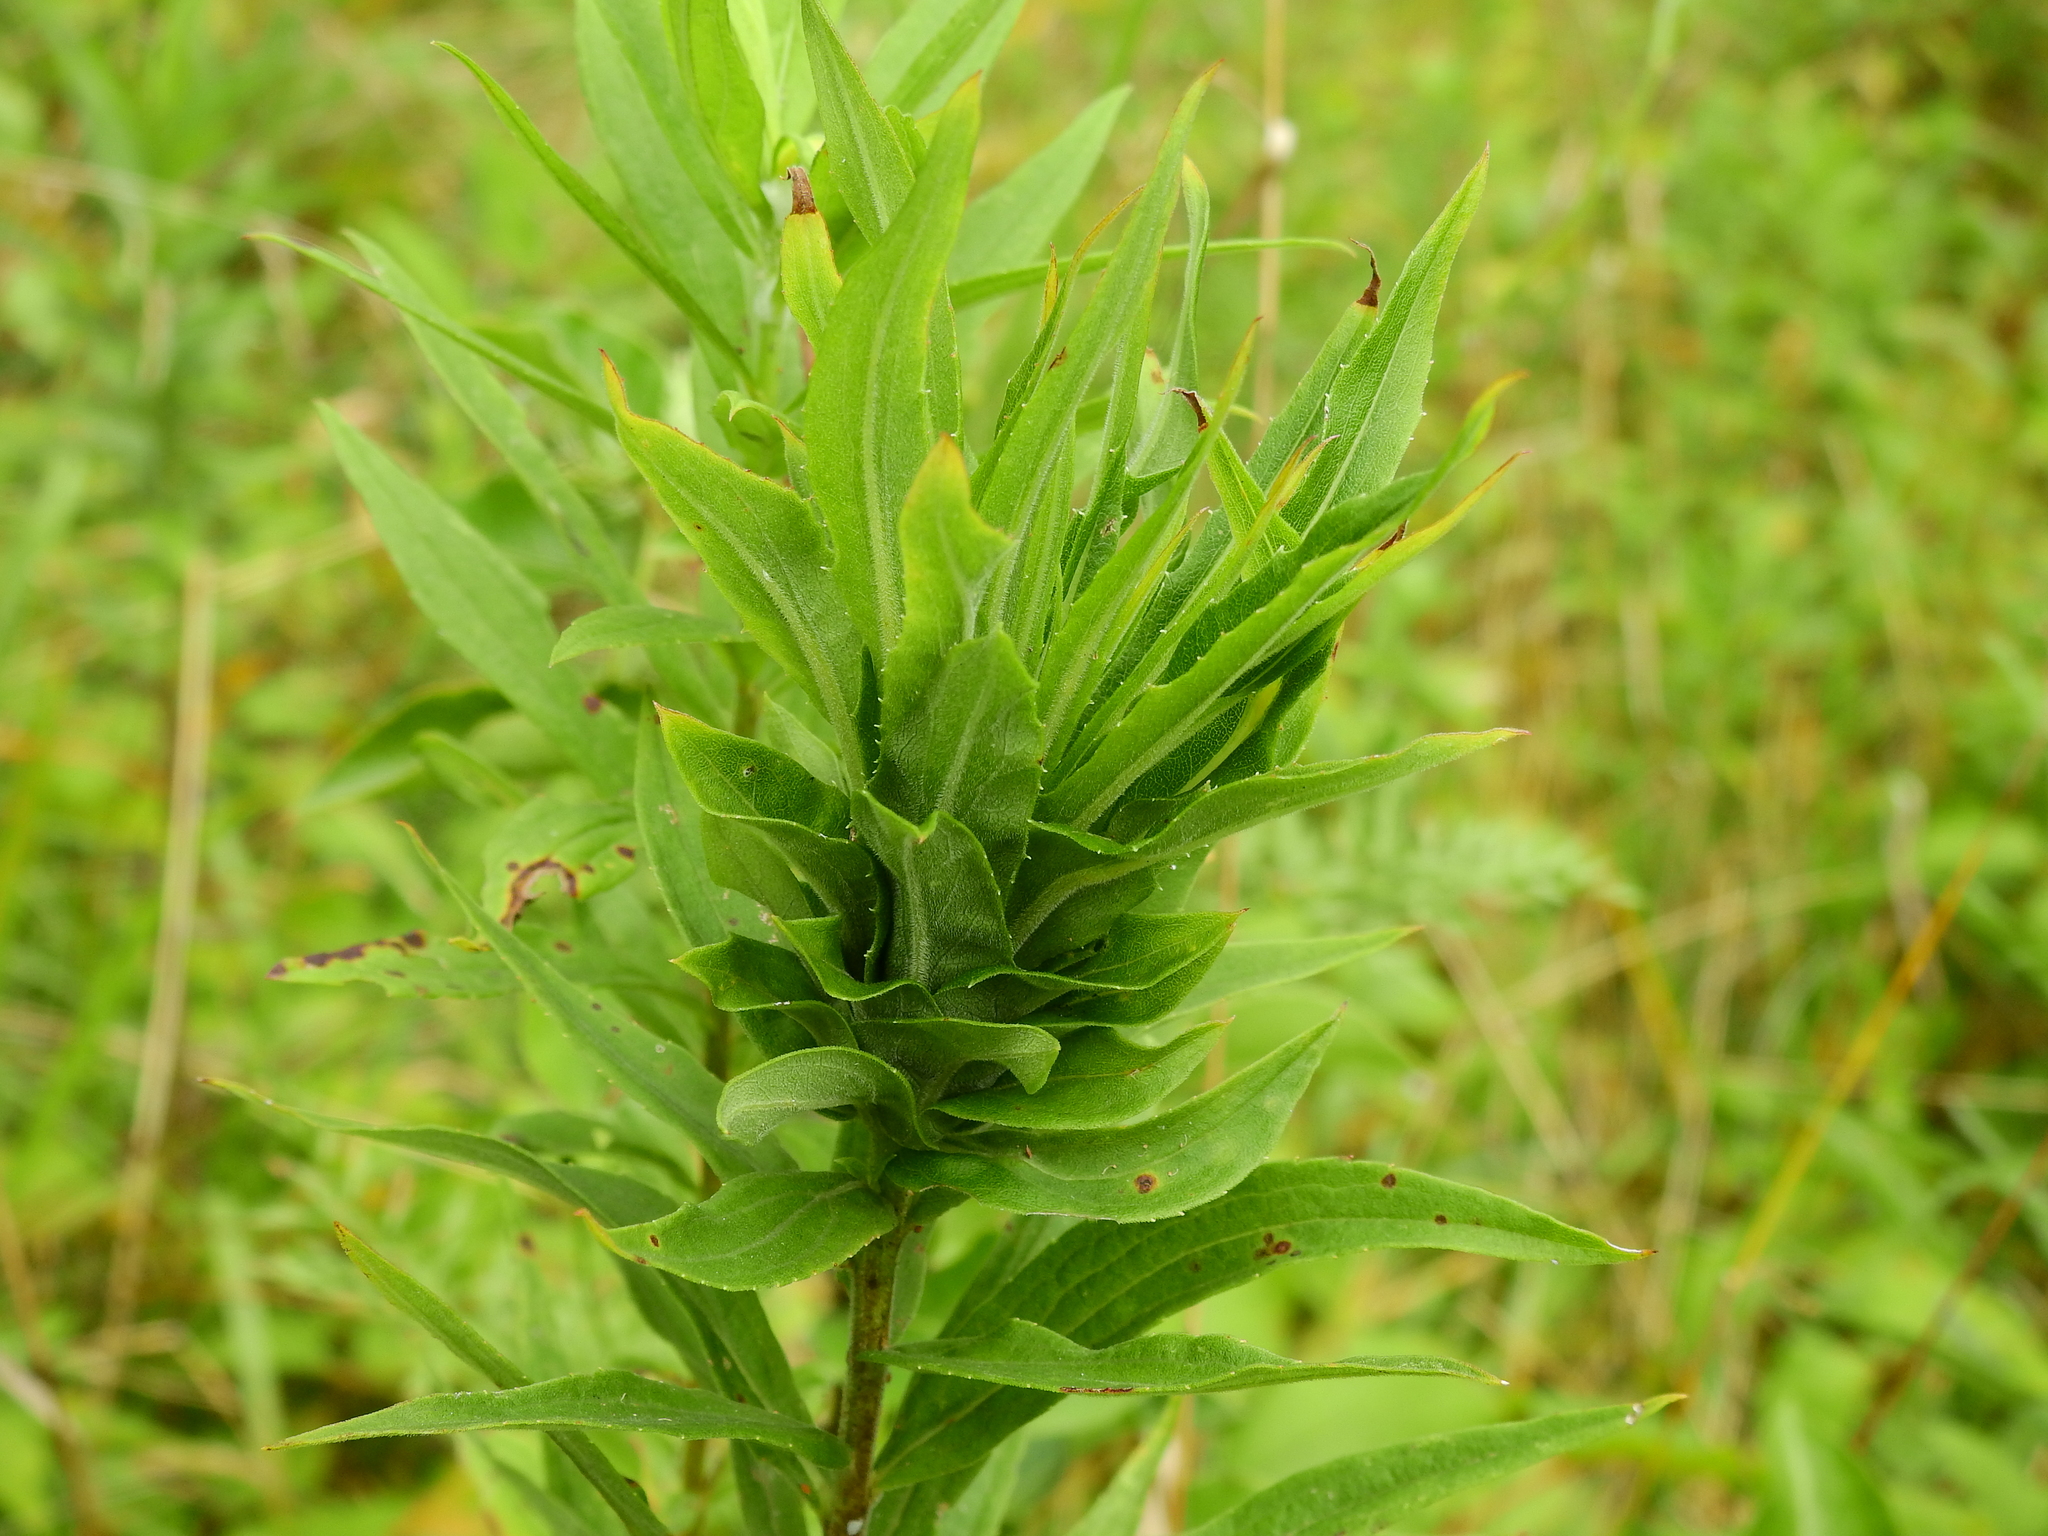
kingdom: Animalia
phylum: Arthropoda
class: Insecta
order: Diptera
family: Cecidomyiidae
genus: Rhopalomyia
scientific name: Rhopalomyia solidaginis
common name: Goldenrod bunch gall midge
